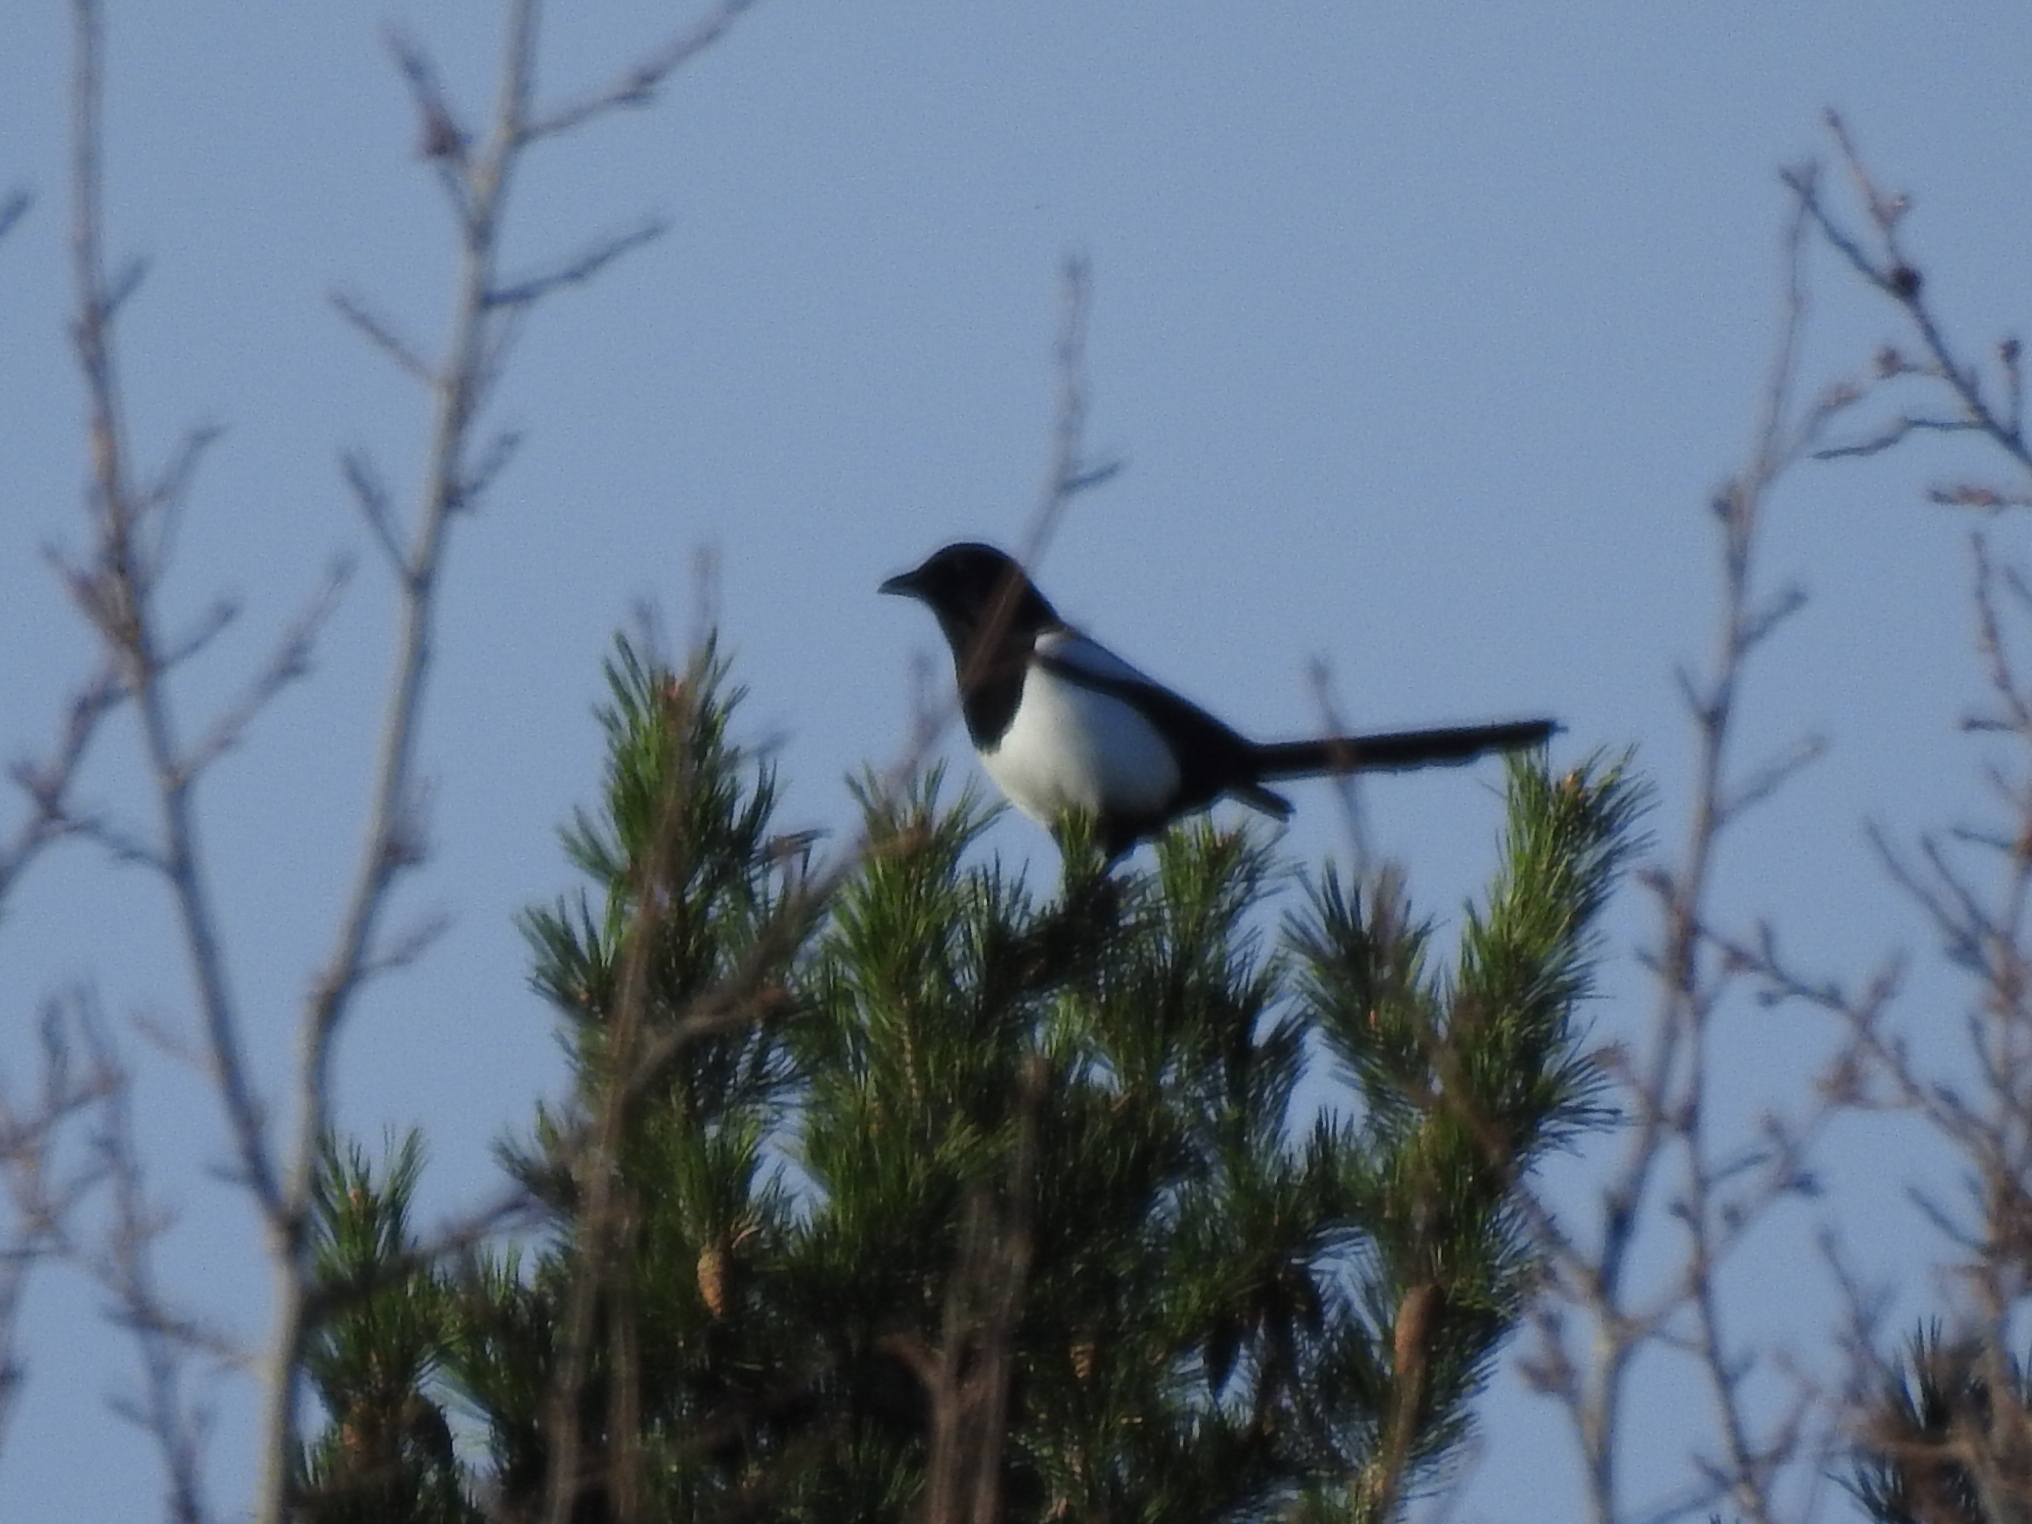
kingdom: Animalia
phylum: Chordata
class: Aves
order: Passeriformes
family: Corvidae
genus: Pica
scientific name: Pica pica
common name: Eurasian magpie
